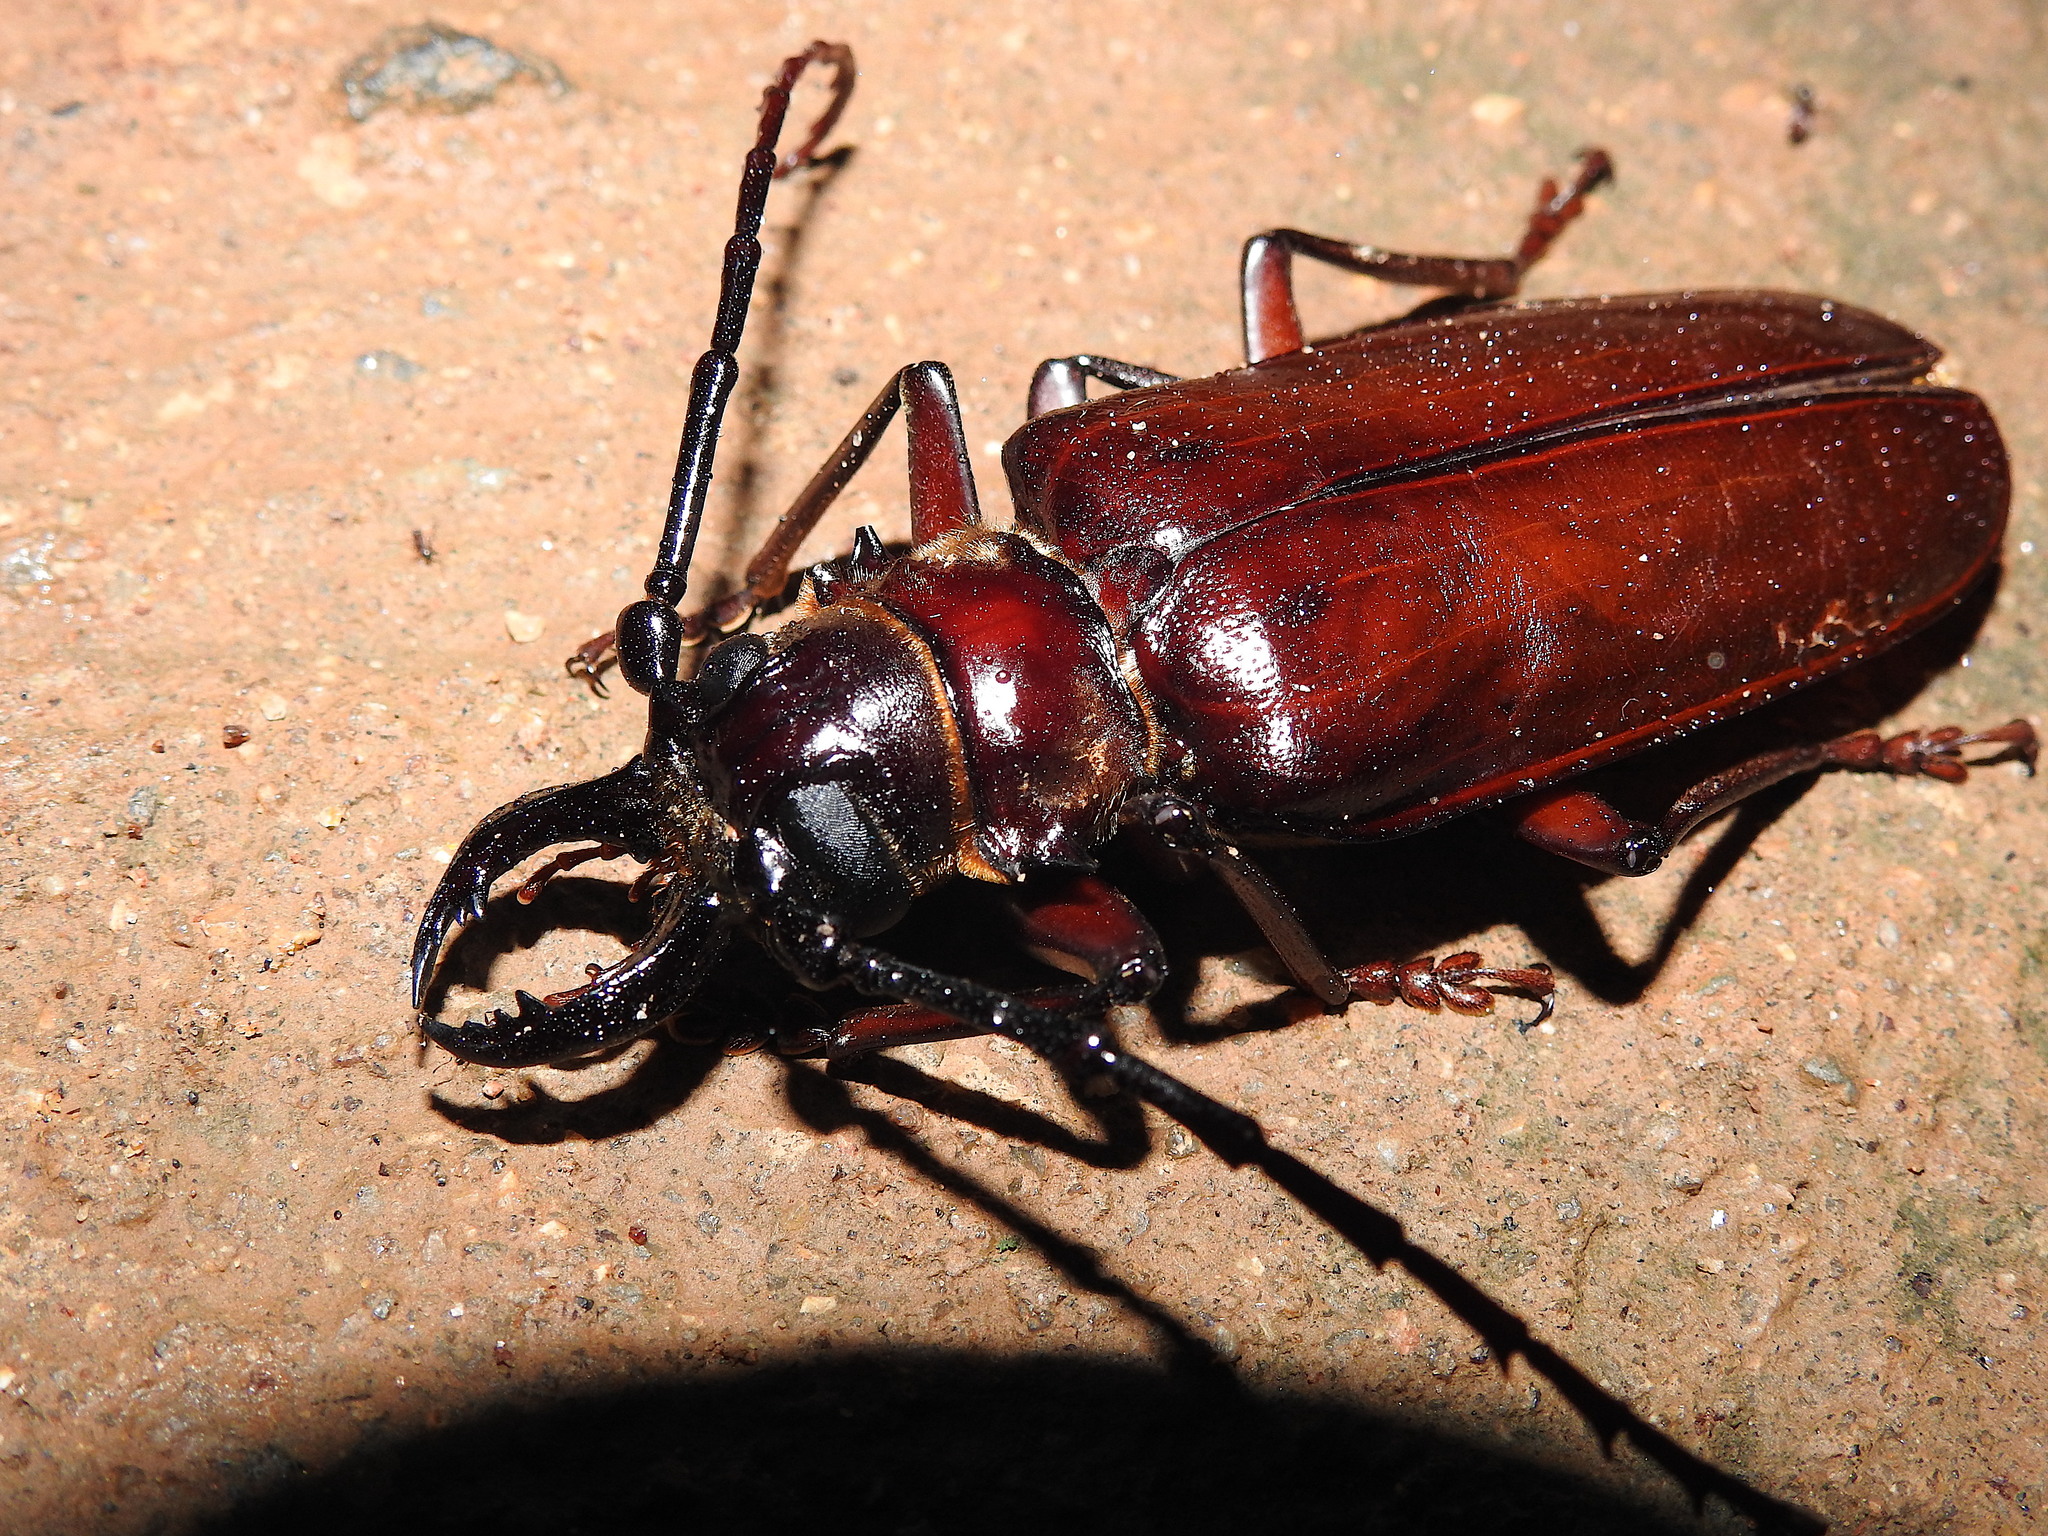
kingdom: Animalia
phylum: Arthropoda
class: Insecta
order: Coleoptera
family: Cerambycidae
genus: Acanthophorus
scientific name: Acanthophorus serraticornis
